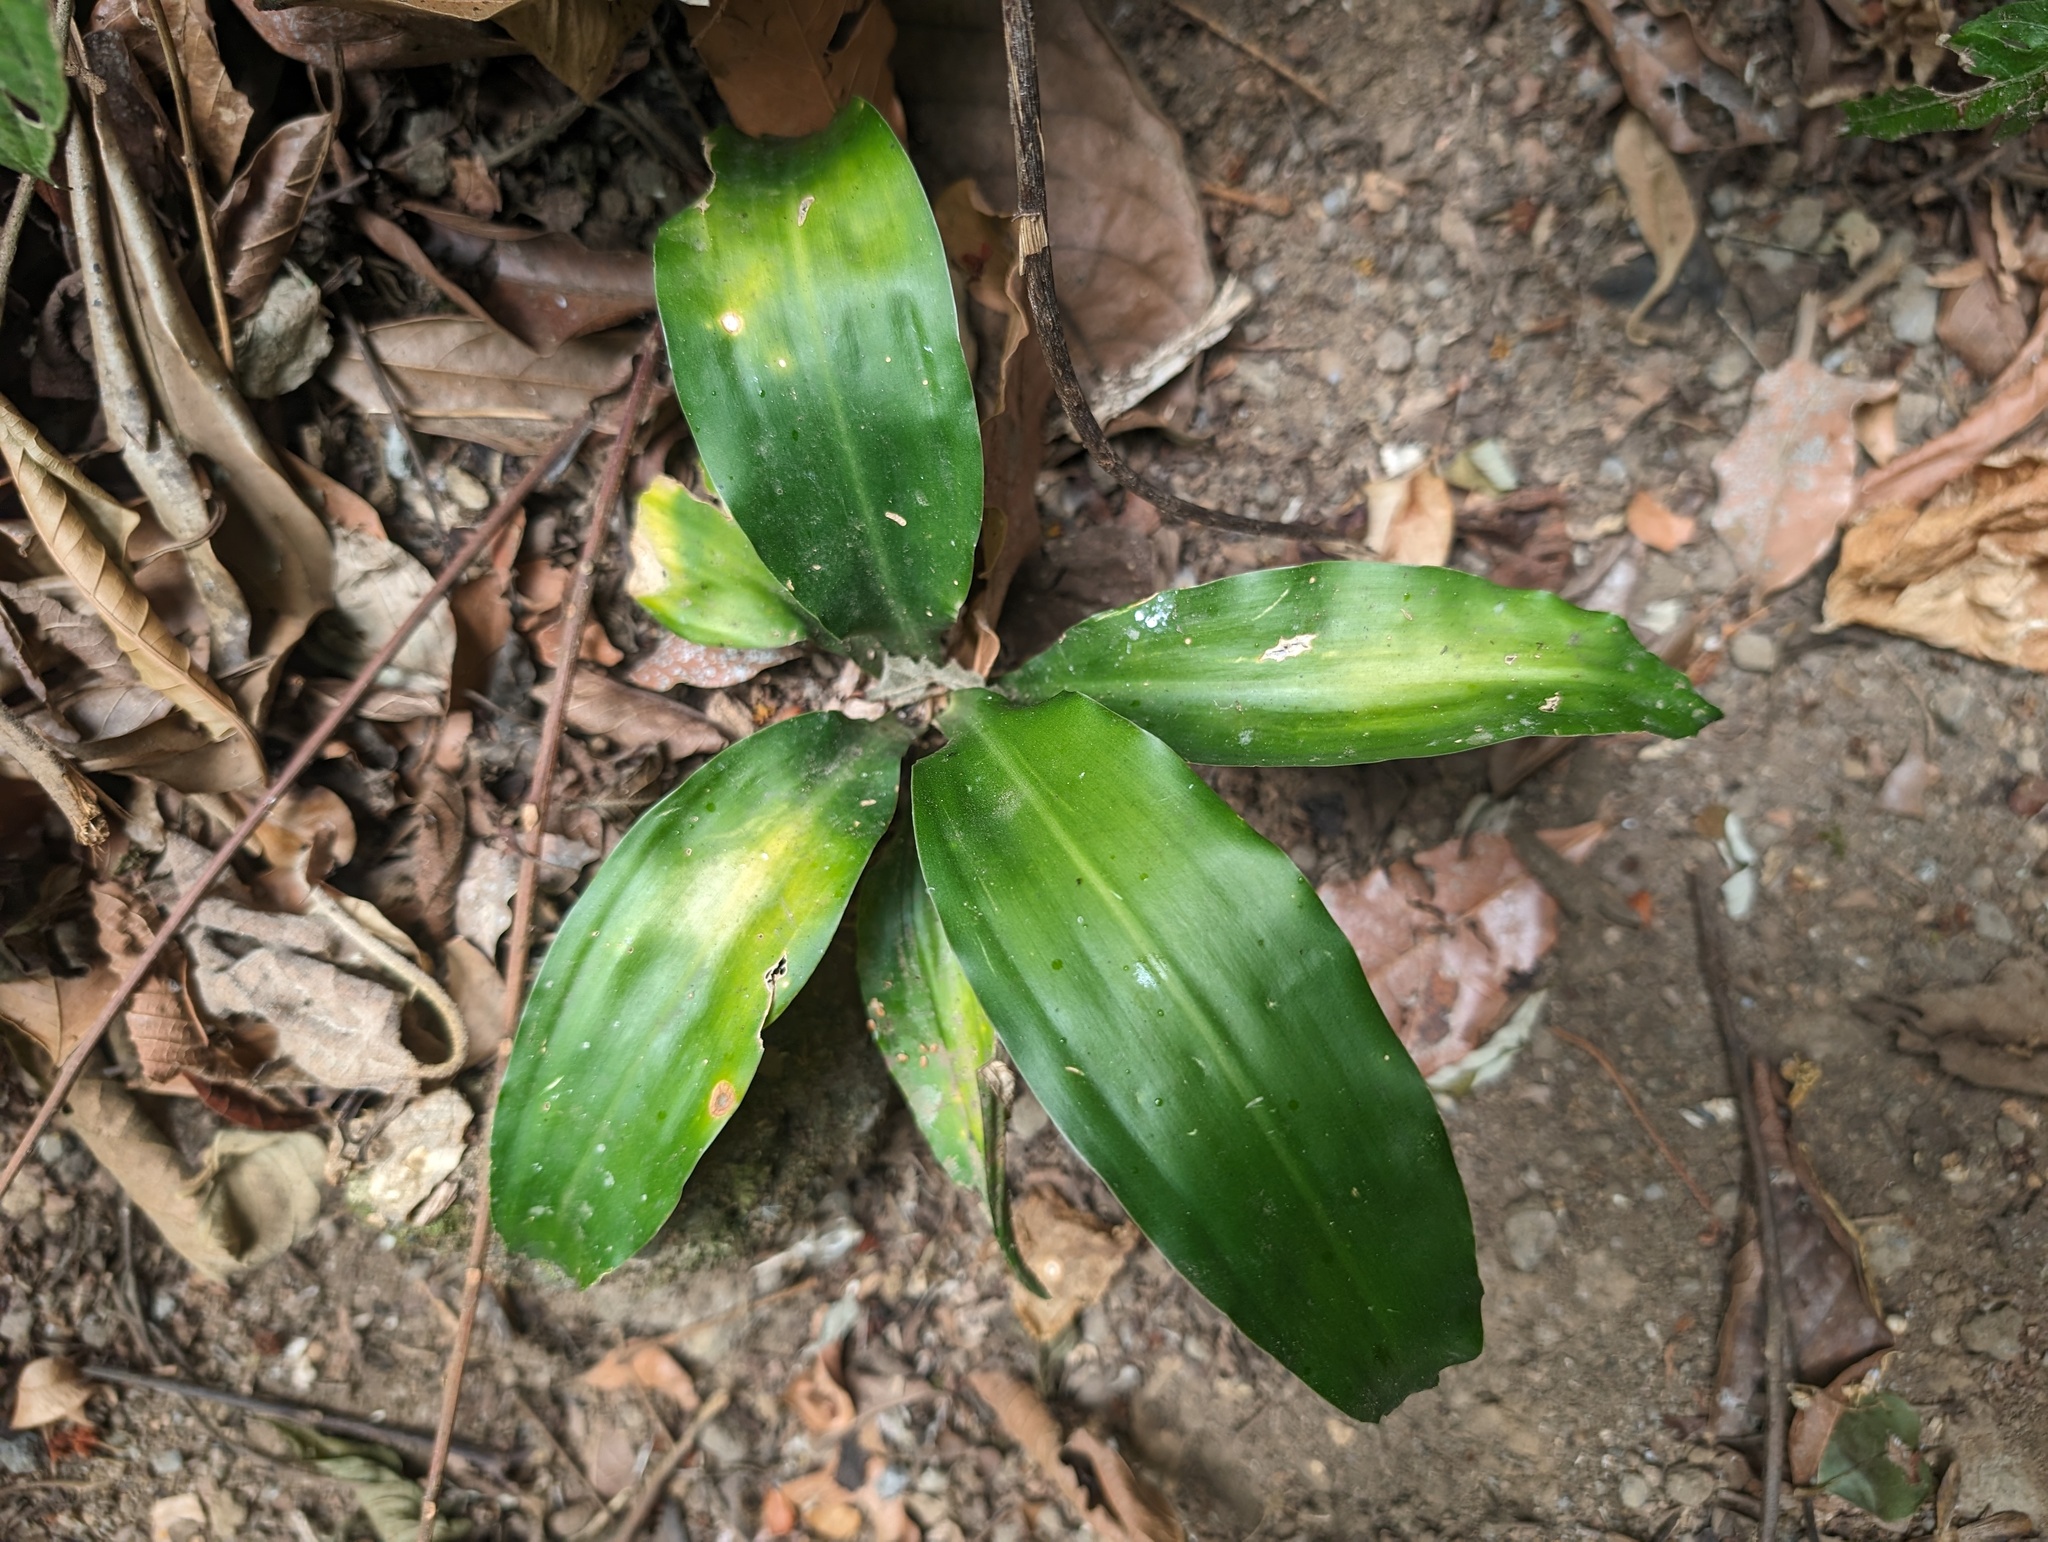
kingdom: Plantae
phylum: Tracheophyta
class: Liliopsida
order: Asparagales
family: Asparagaceae
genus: Dracaena
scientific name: Dracaena fragrans
